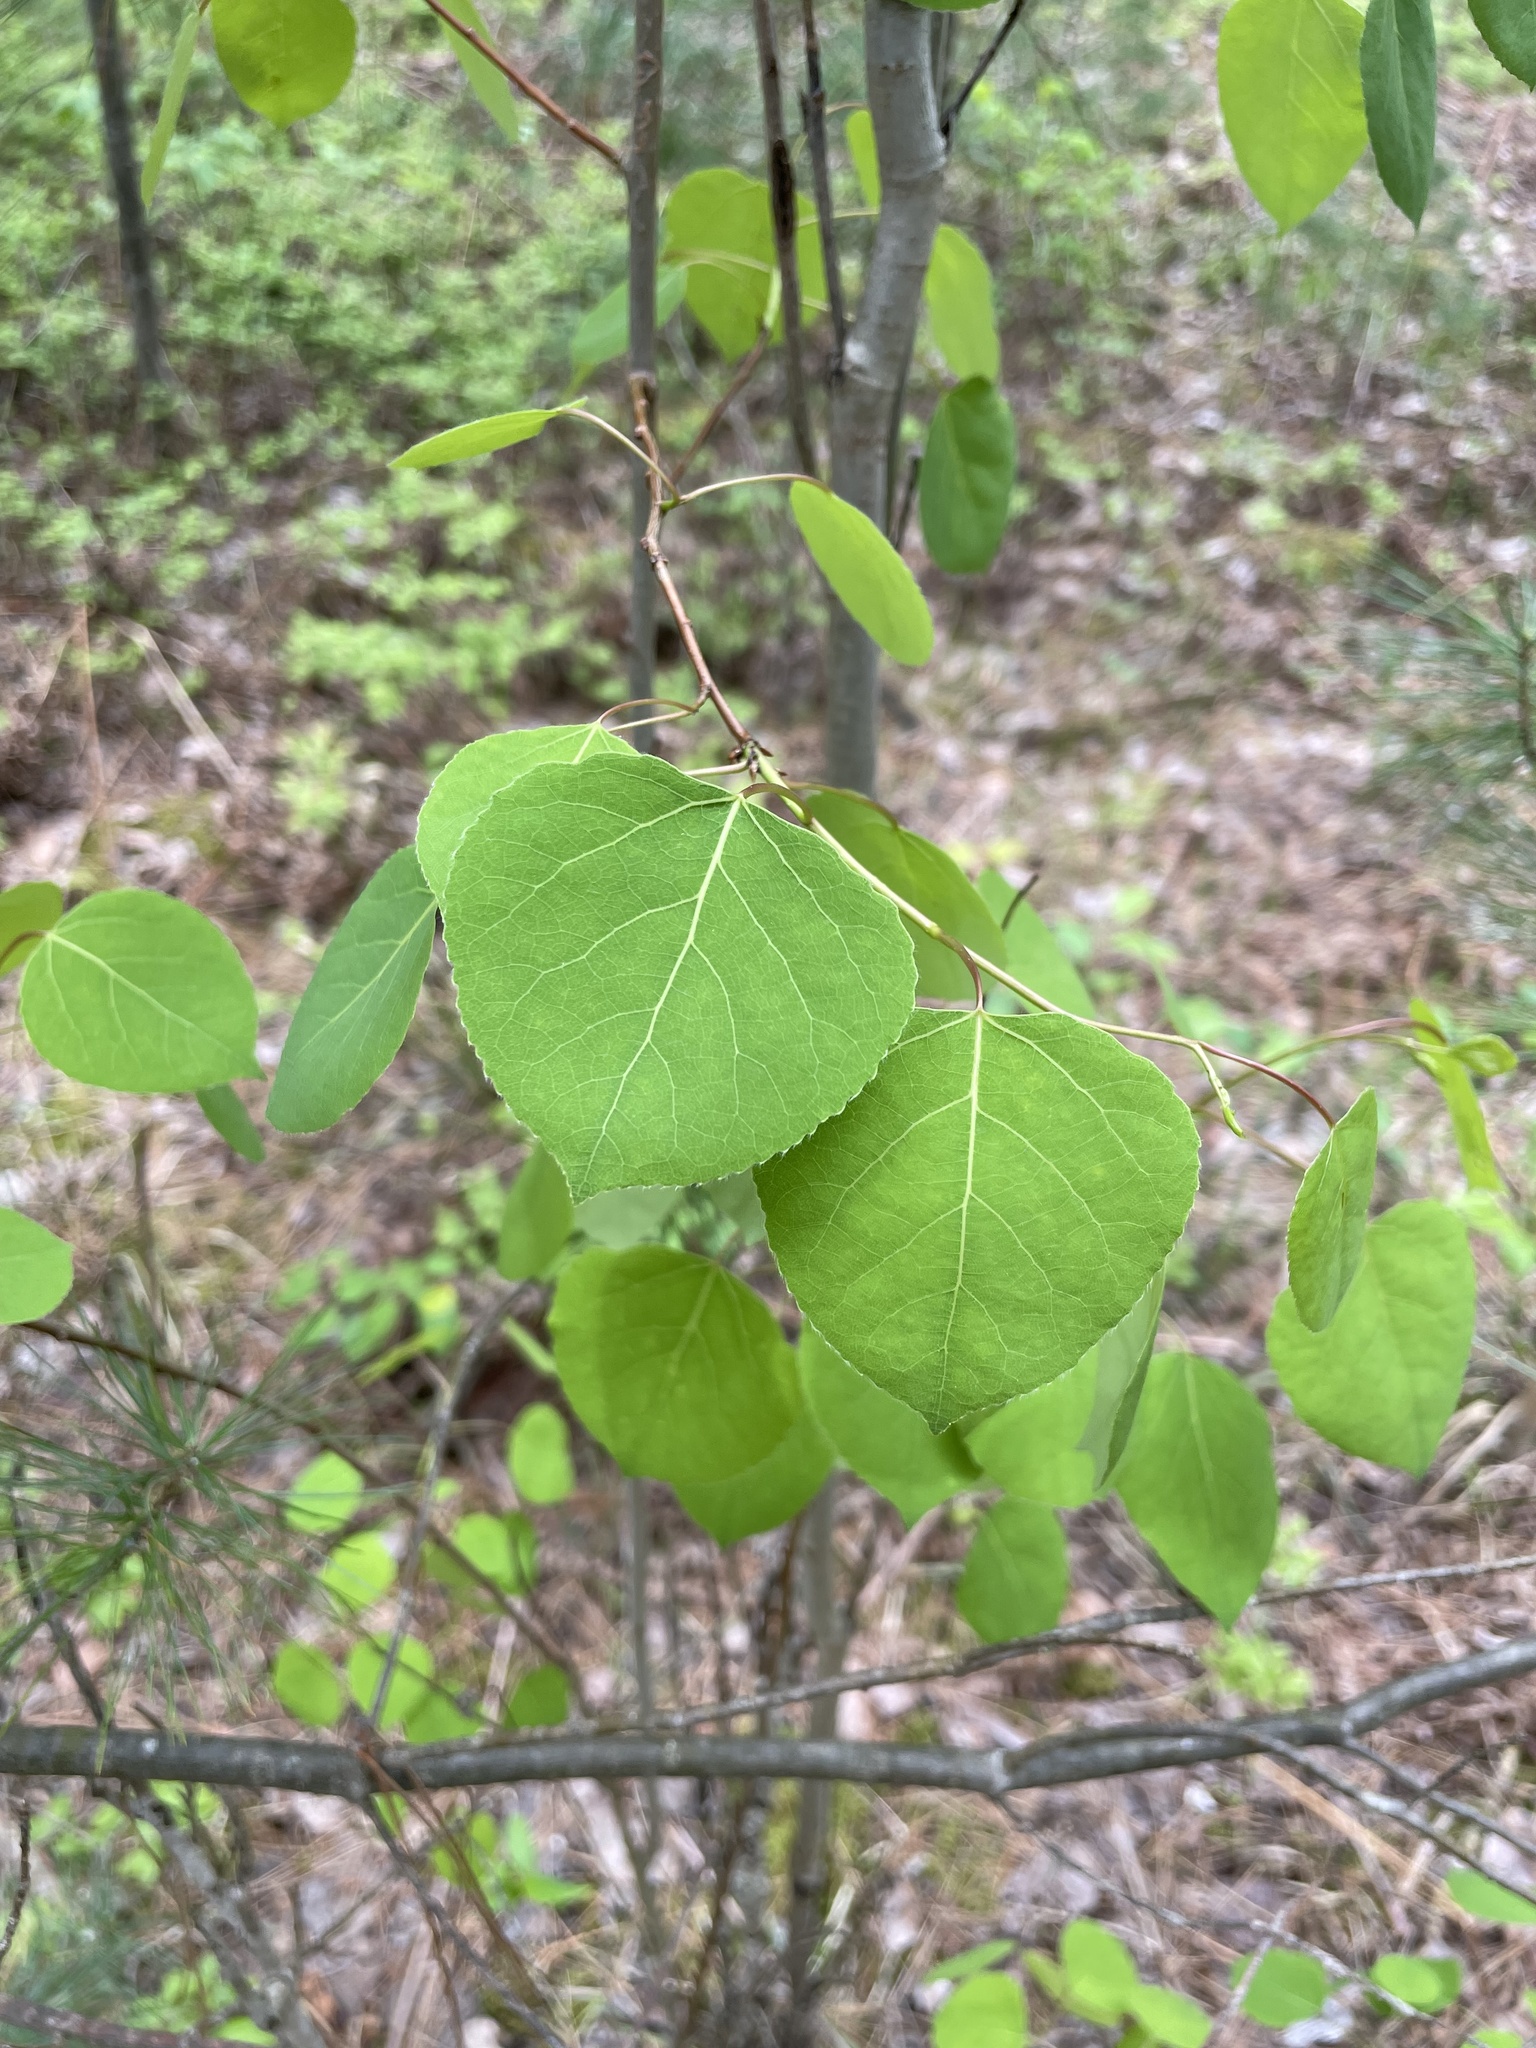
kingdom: Plantae
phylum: Tracheophyta
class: Magnoliopsida
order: Malpighiales
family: Salicaceae
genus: Populus
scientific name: Populus tremuloides
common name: Quaking aspen
